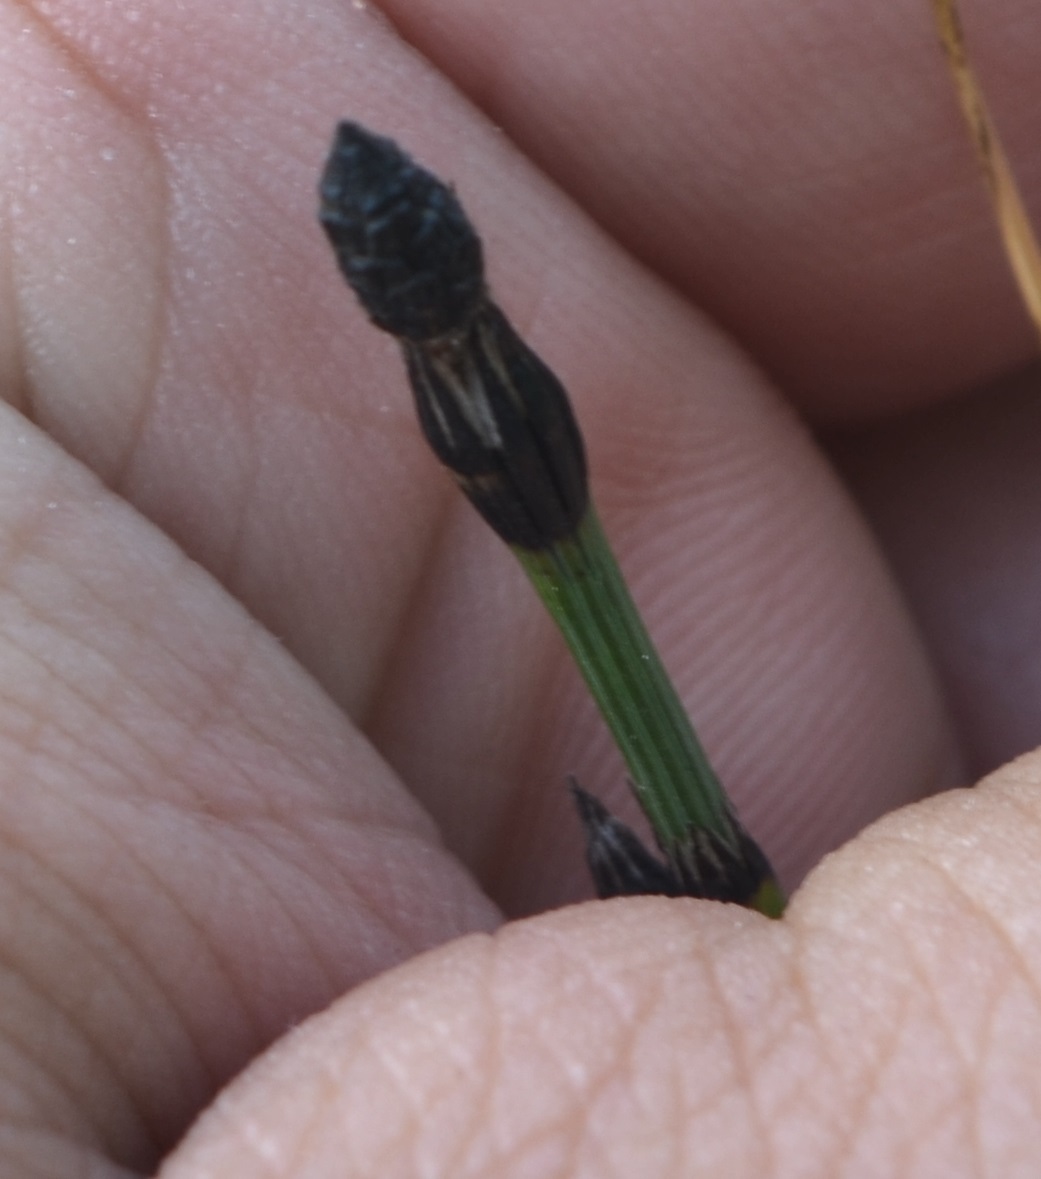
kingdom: Plantae
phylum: Tracheophyta
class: Polypodiopsida
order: Equisetales
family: Equisetaceae
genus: Equisetum
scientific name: Equisetum variegatum
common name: Variegated horsetail
